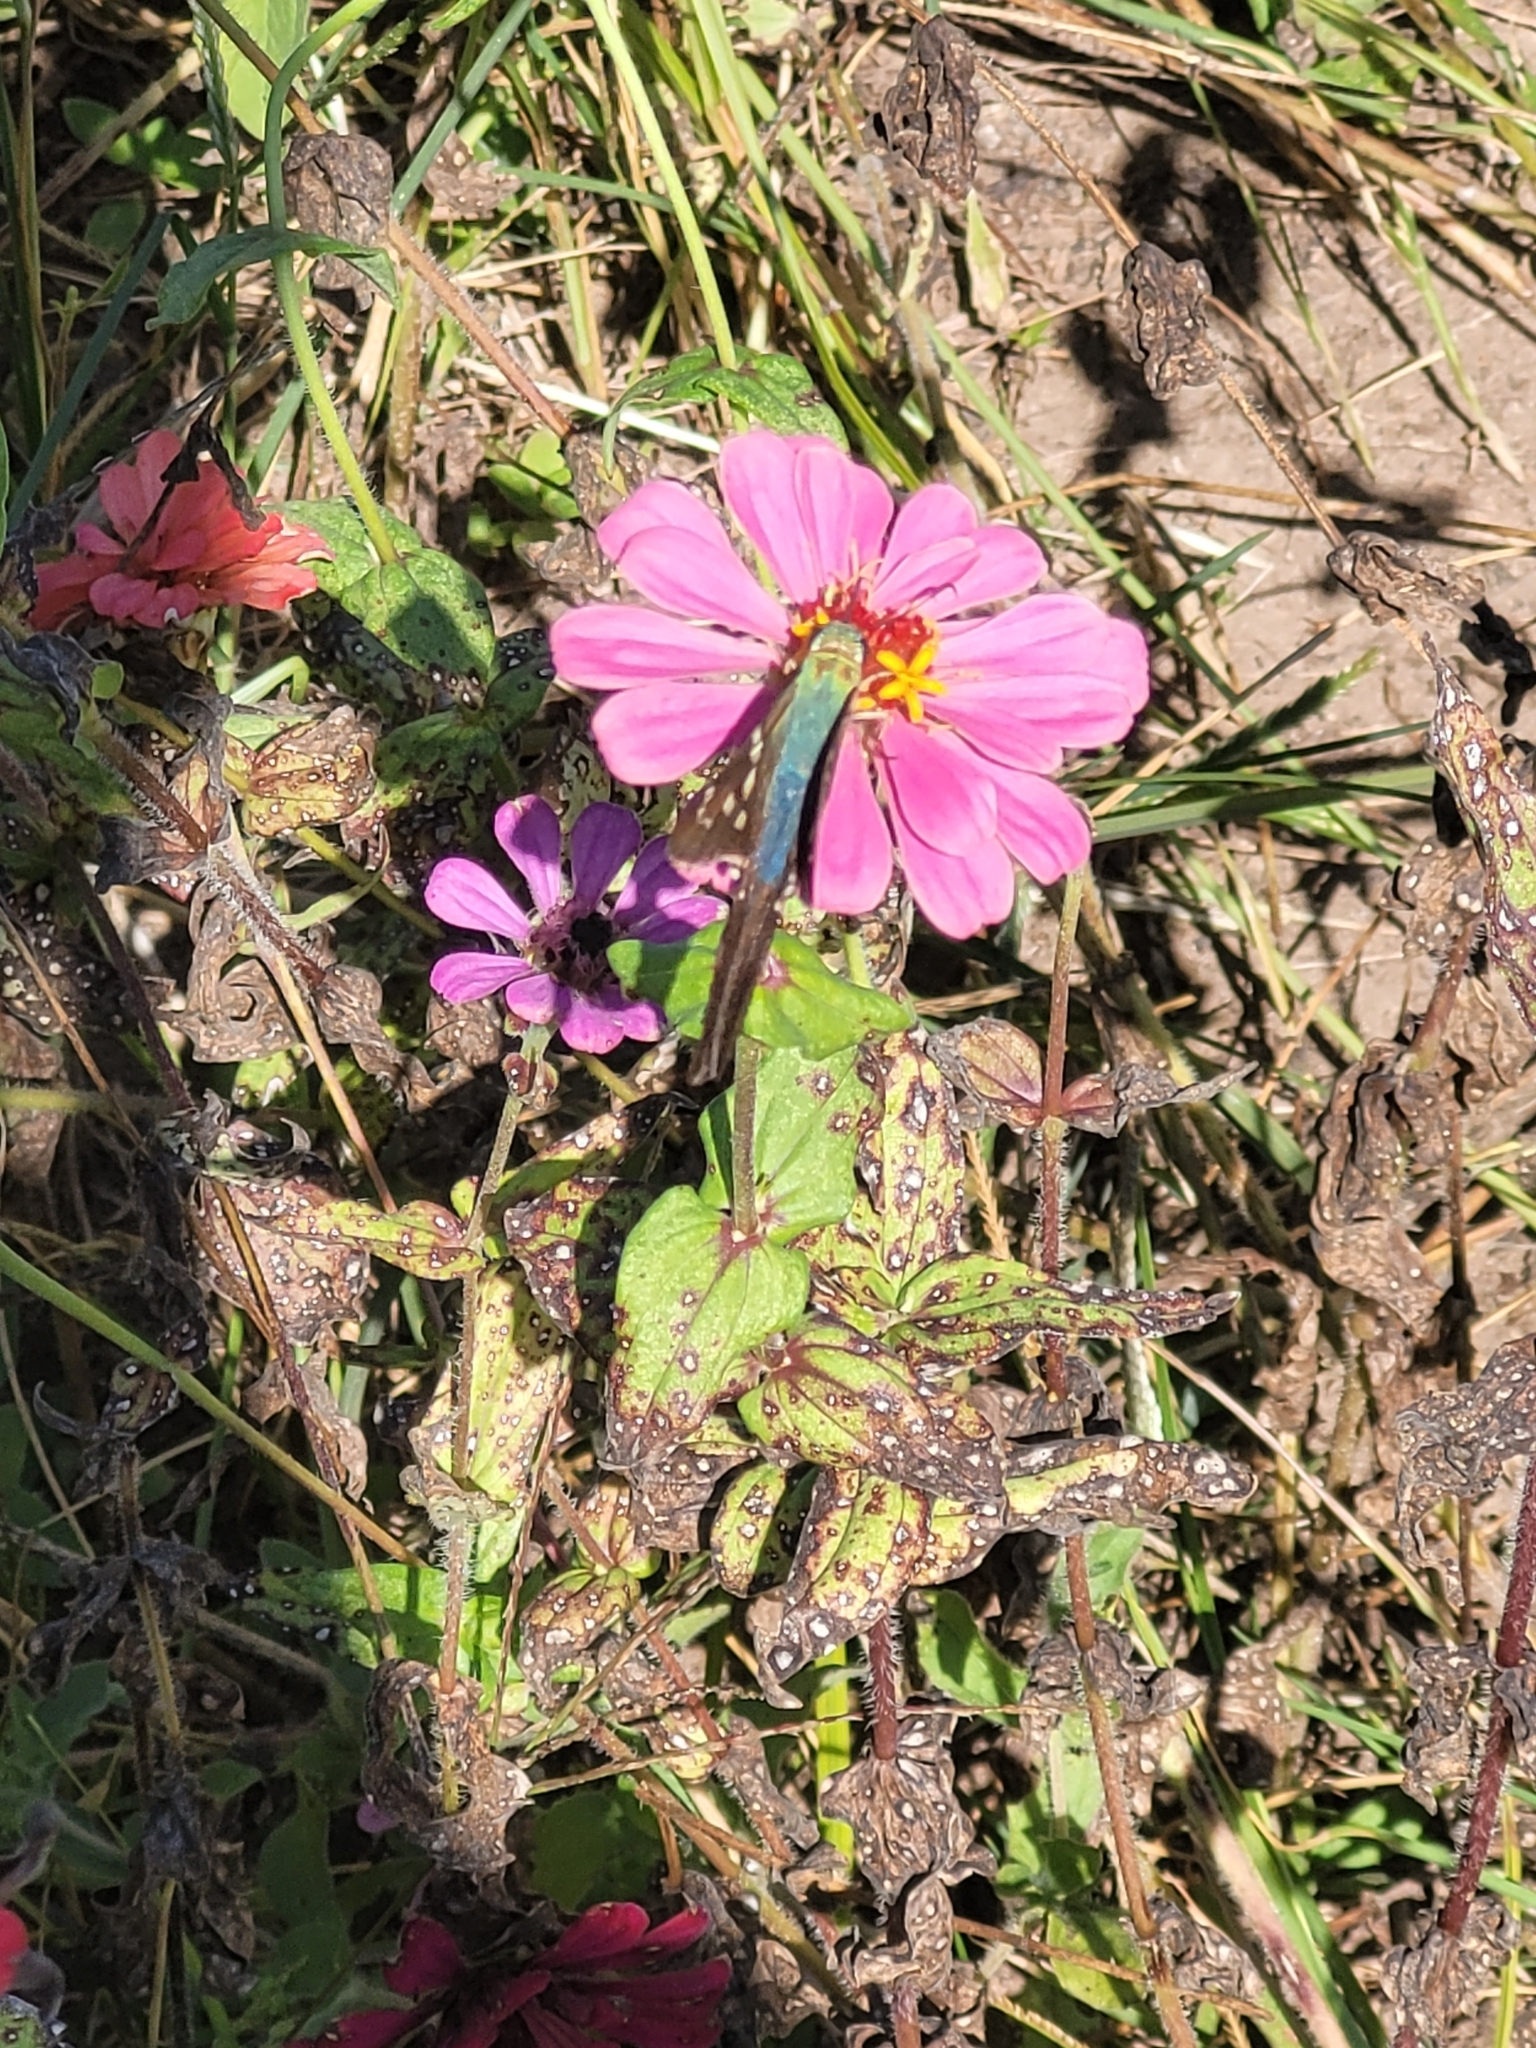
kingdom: Animalia
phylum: Arthropoda
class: Insecta
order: Lepidoptera
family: Hesperiidae
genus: Urbanus
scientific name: Urbanus proteus
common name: Long-tailed skipper
